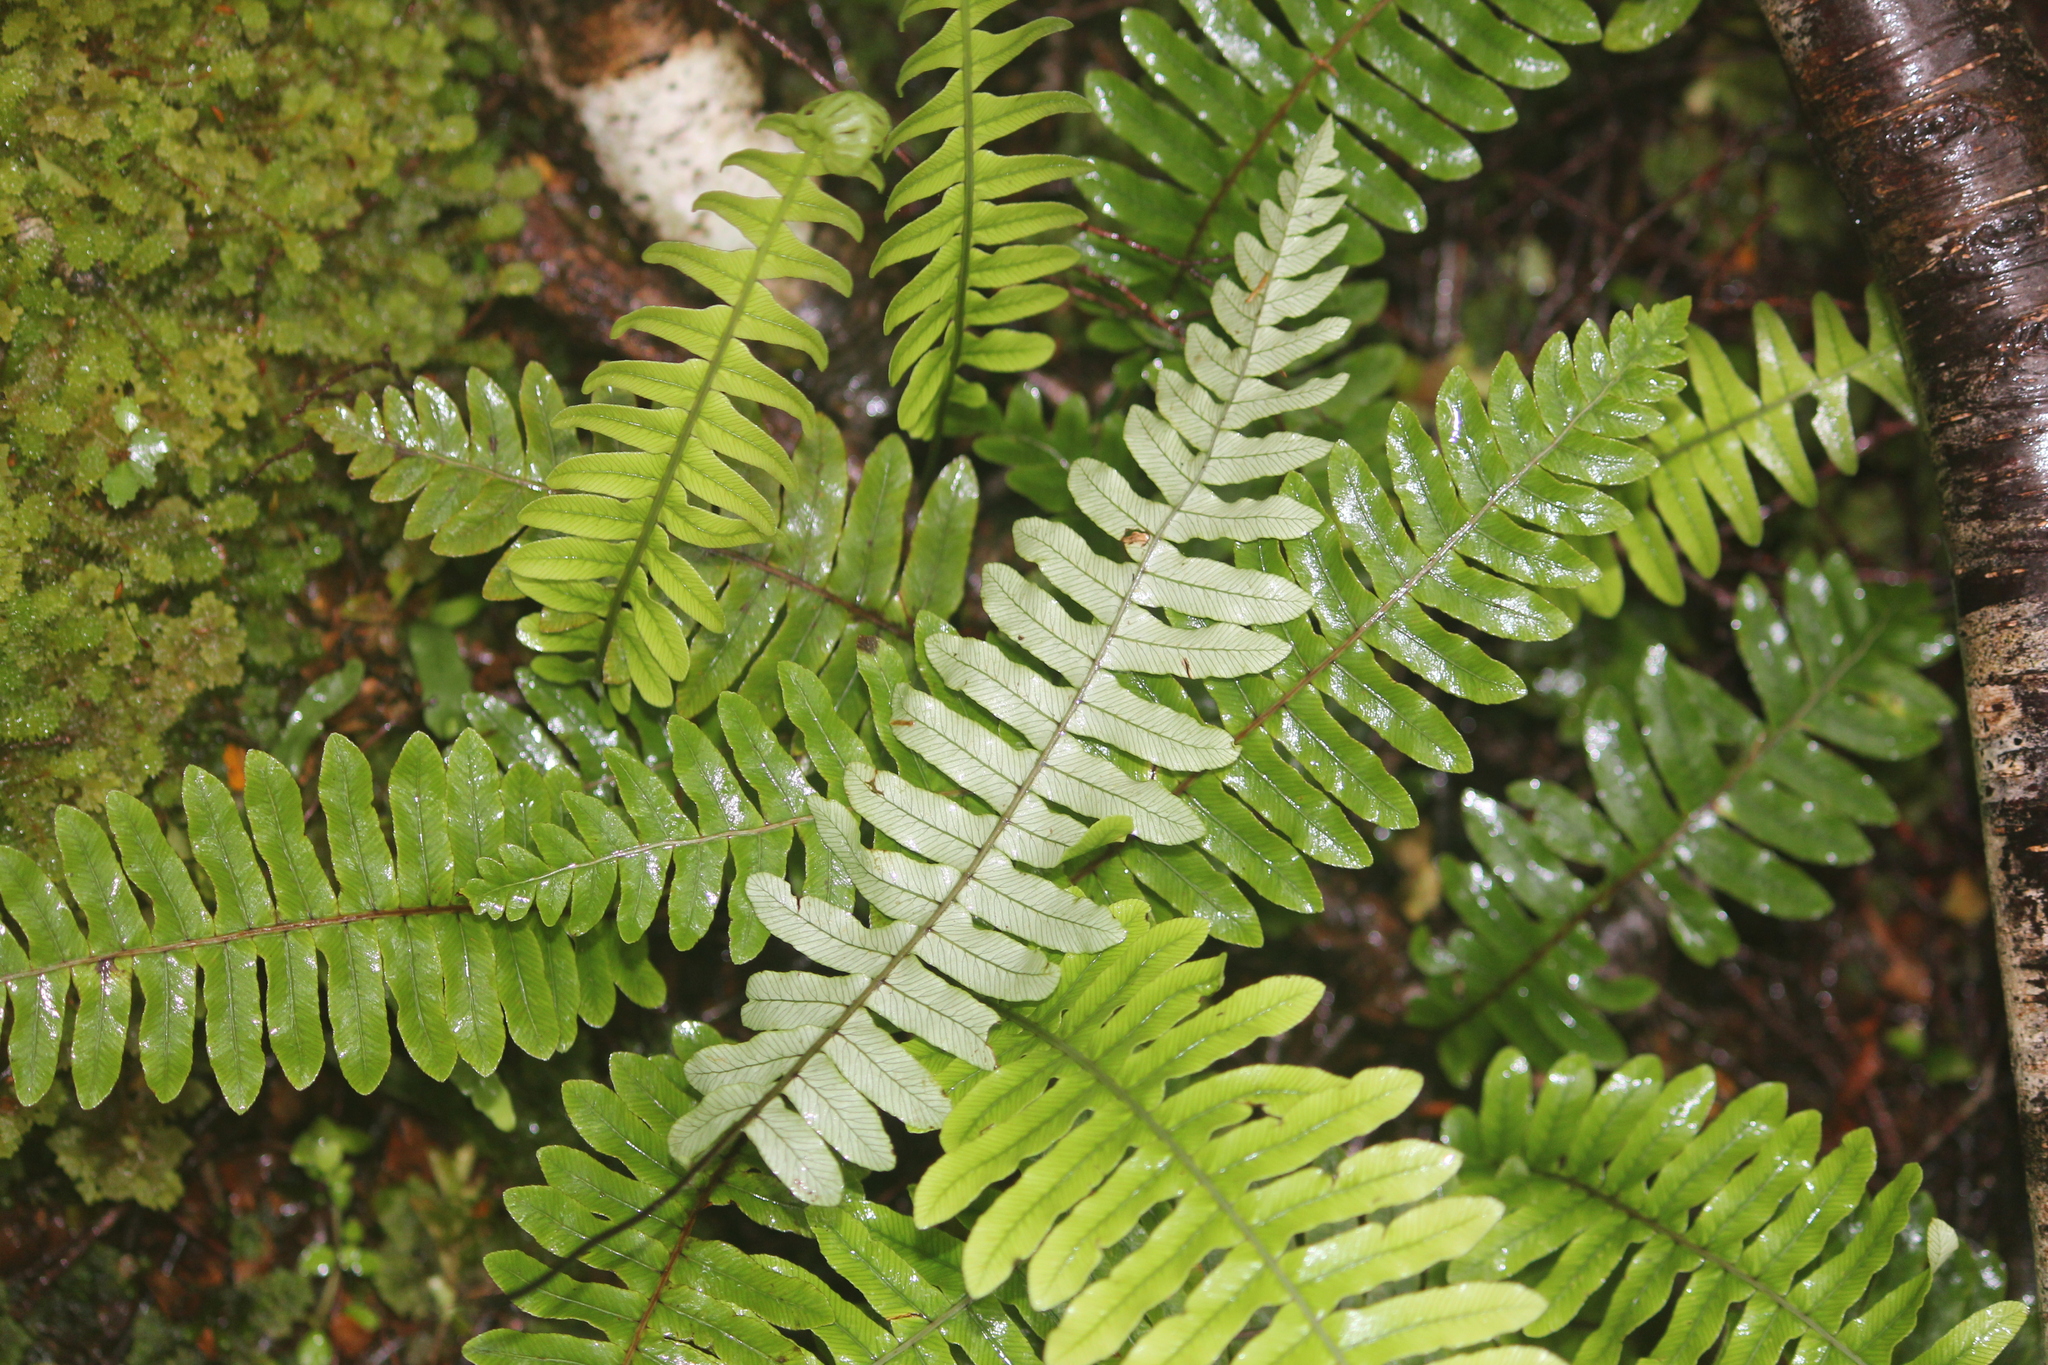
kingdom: Plantae
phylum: Tracheophyta
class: Polypodiopsida
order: Polypodiales
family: Blechnaceae
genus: Lomaria
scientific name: Lomaria discolor
